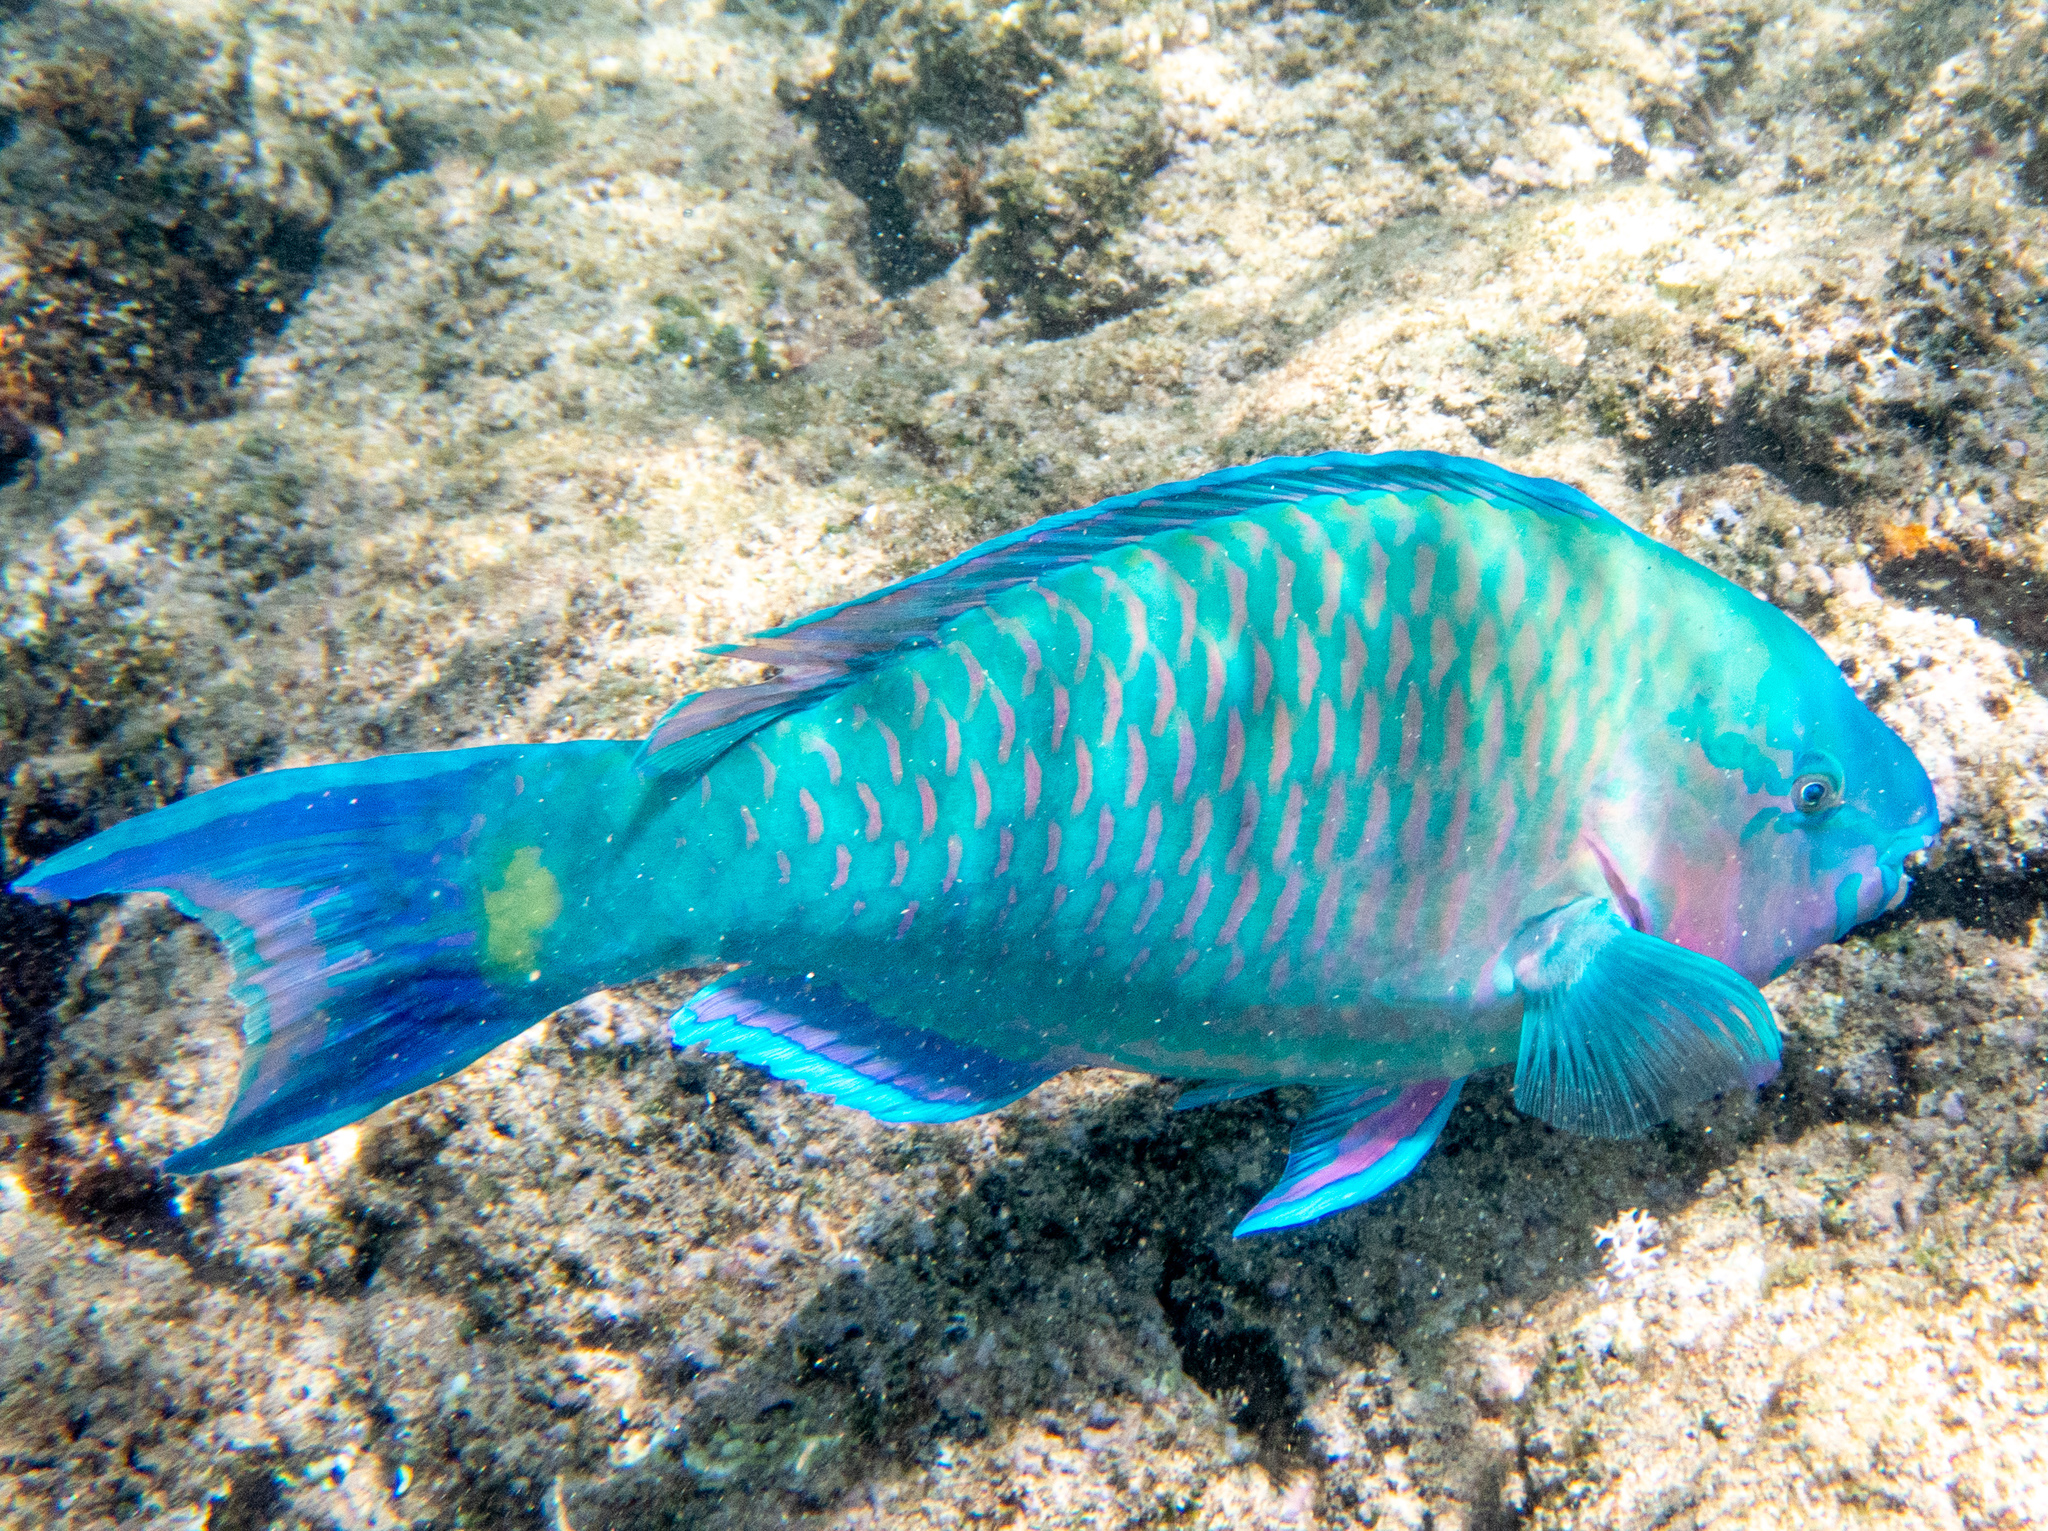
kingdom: Animalia
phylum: Chordata
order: Perciformes
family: Scaridae
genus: Scarus
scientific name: Scarus psittacus
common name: Palenose parrotfish
